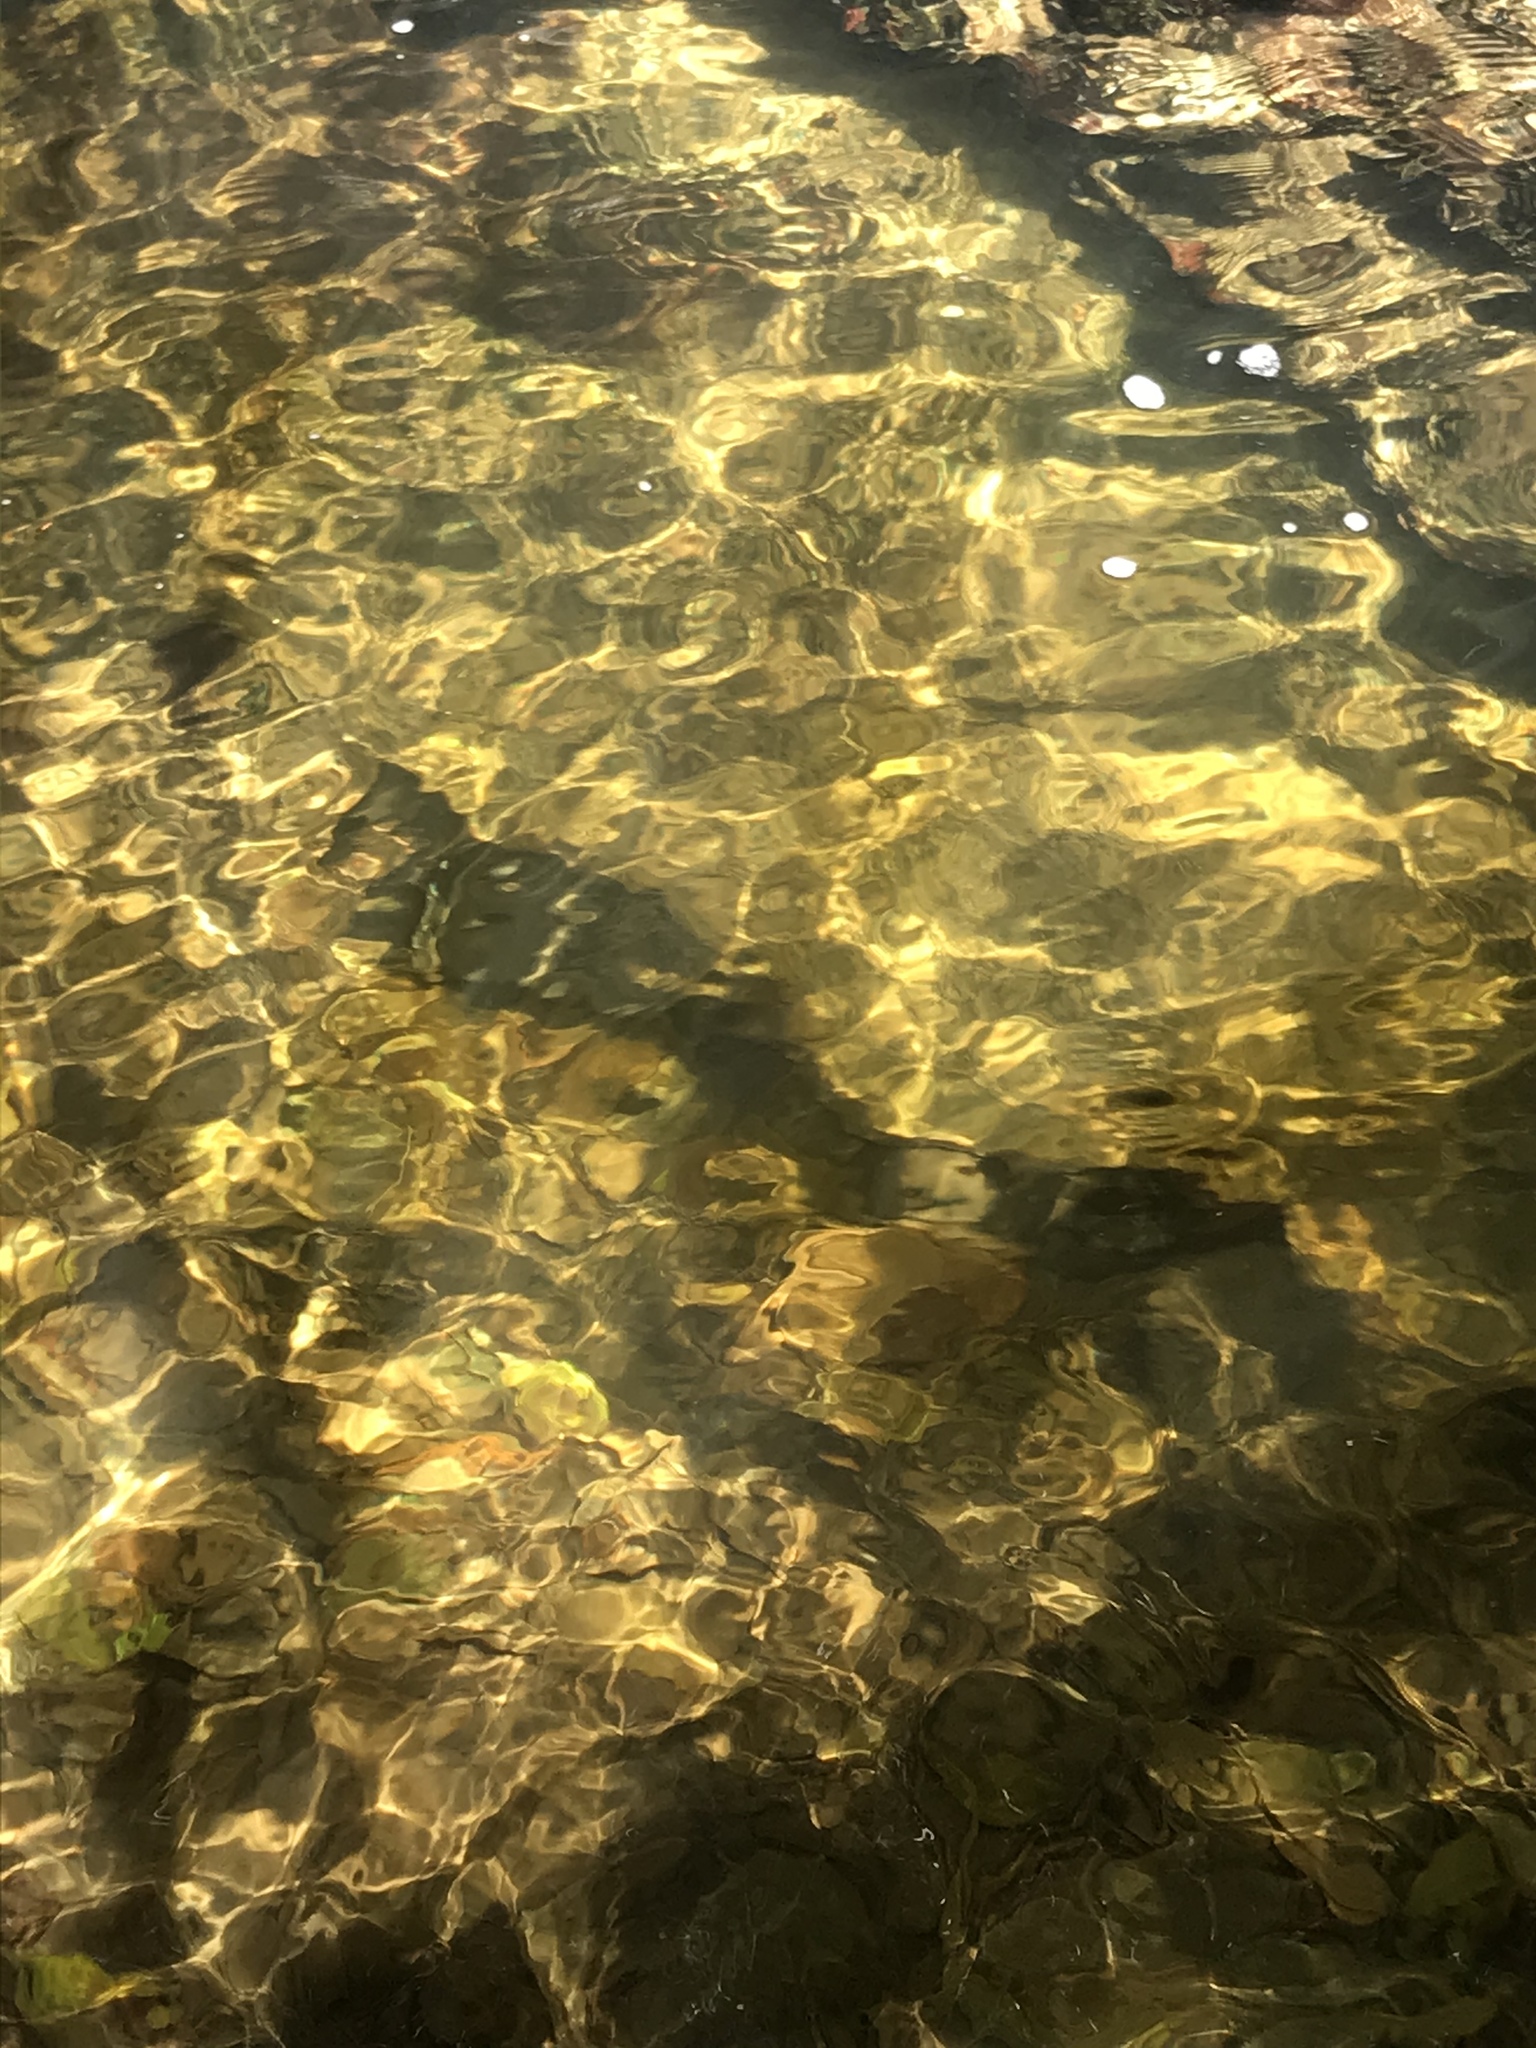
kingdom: Animalia
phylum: Chordata
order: Anguilliformes
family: Anguillidae
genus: Anguilla
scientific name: Anguilla dieffenbachii
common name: New zealand longfin eel
